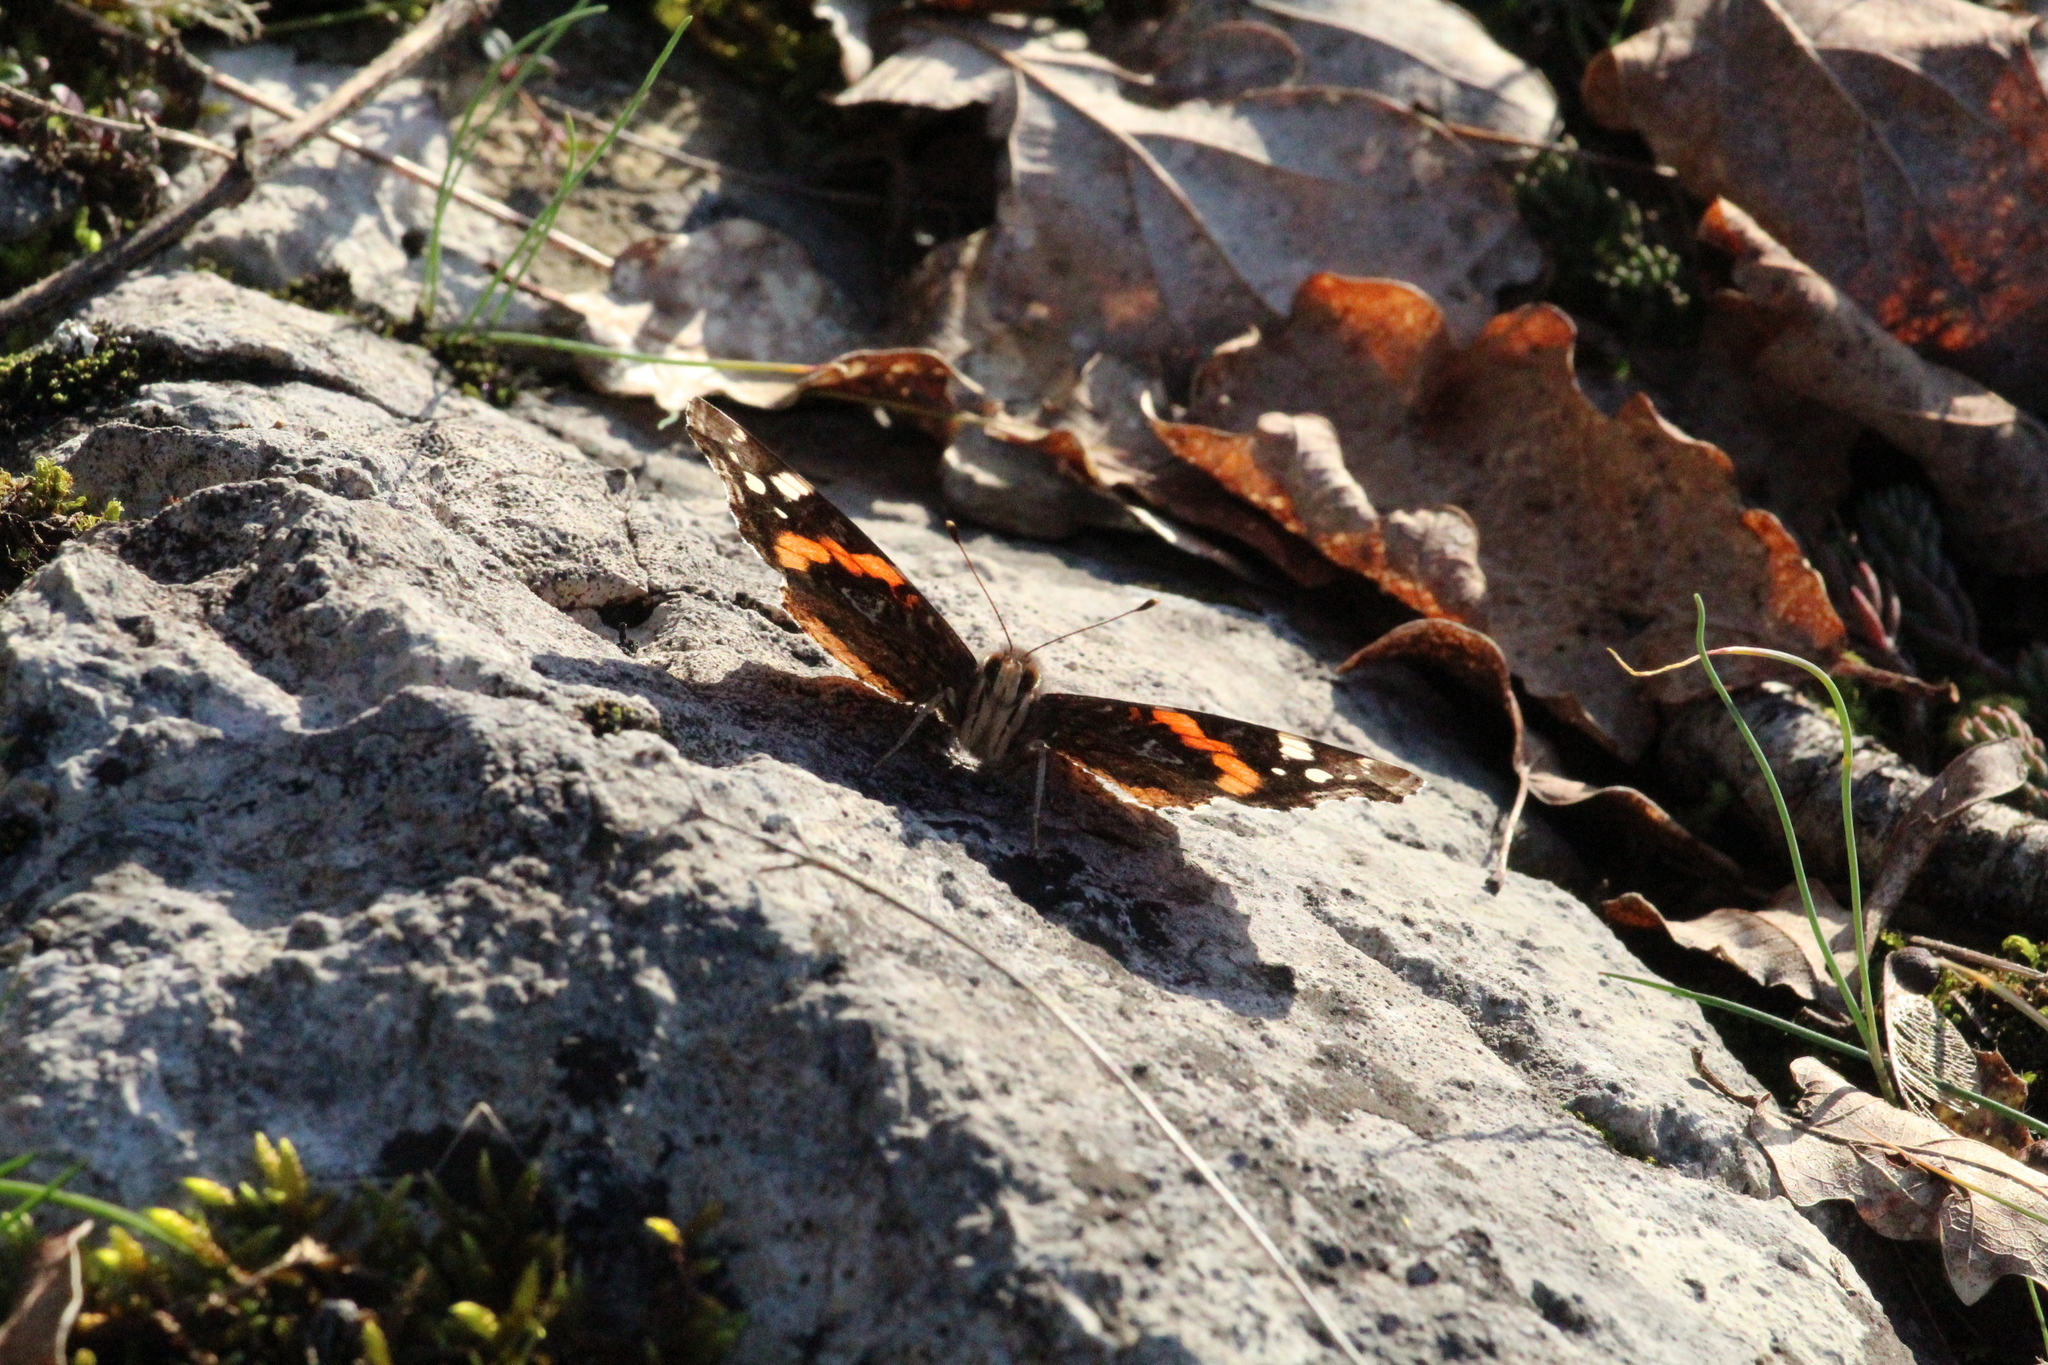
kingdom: Animalia
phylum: Arthropoda
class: Insecta
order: Lepidoptera
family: Nymphalidae
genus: Vanessa
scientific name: Vanessa atalanta
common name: Red admiral
